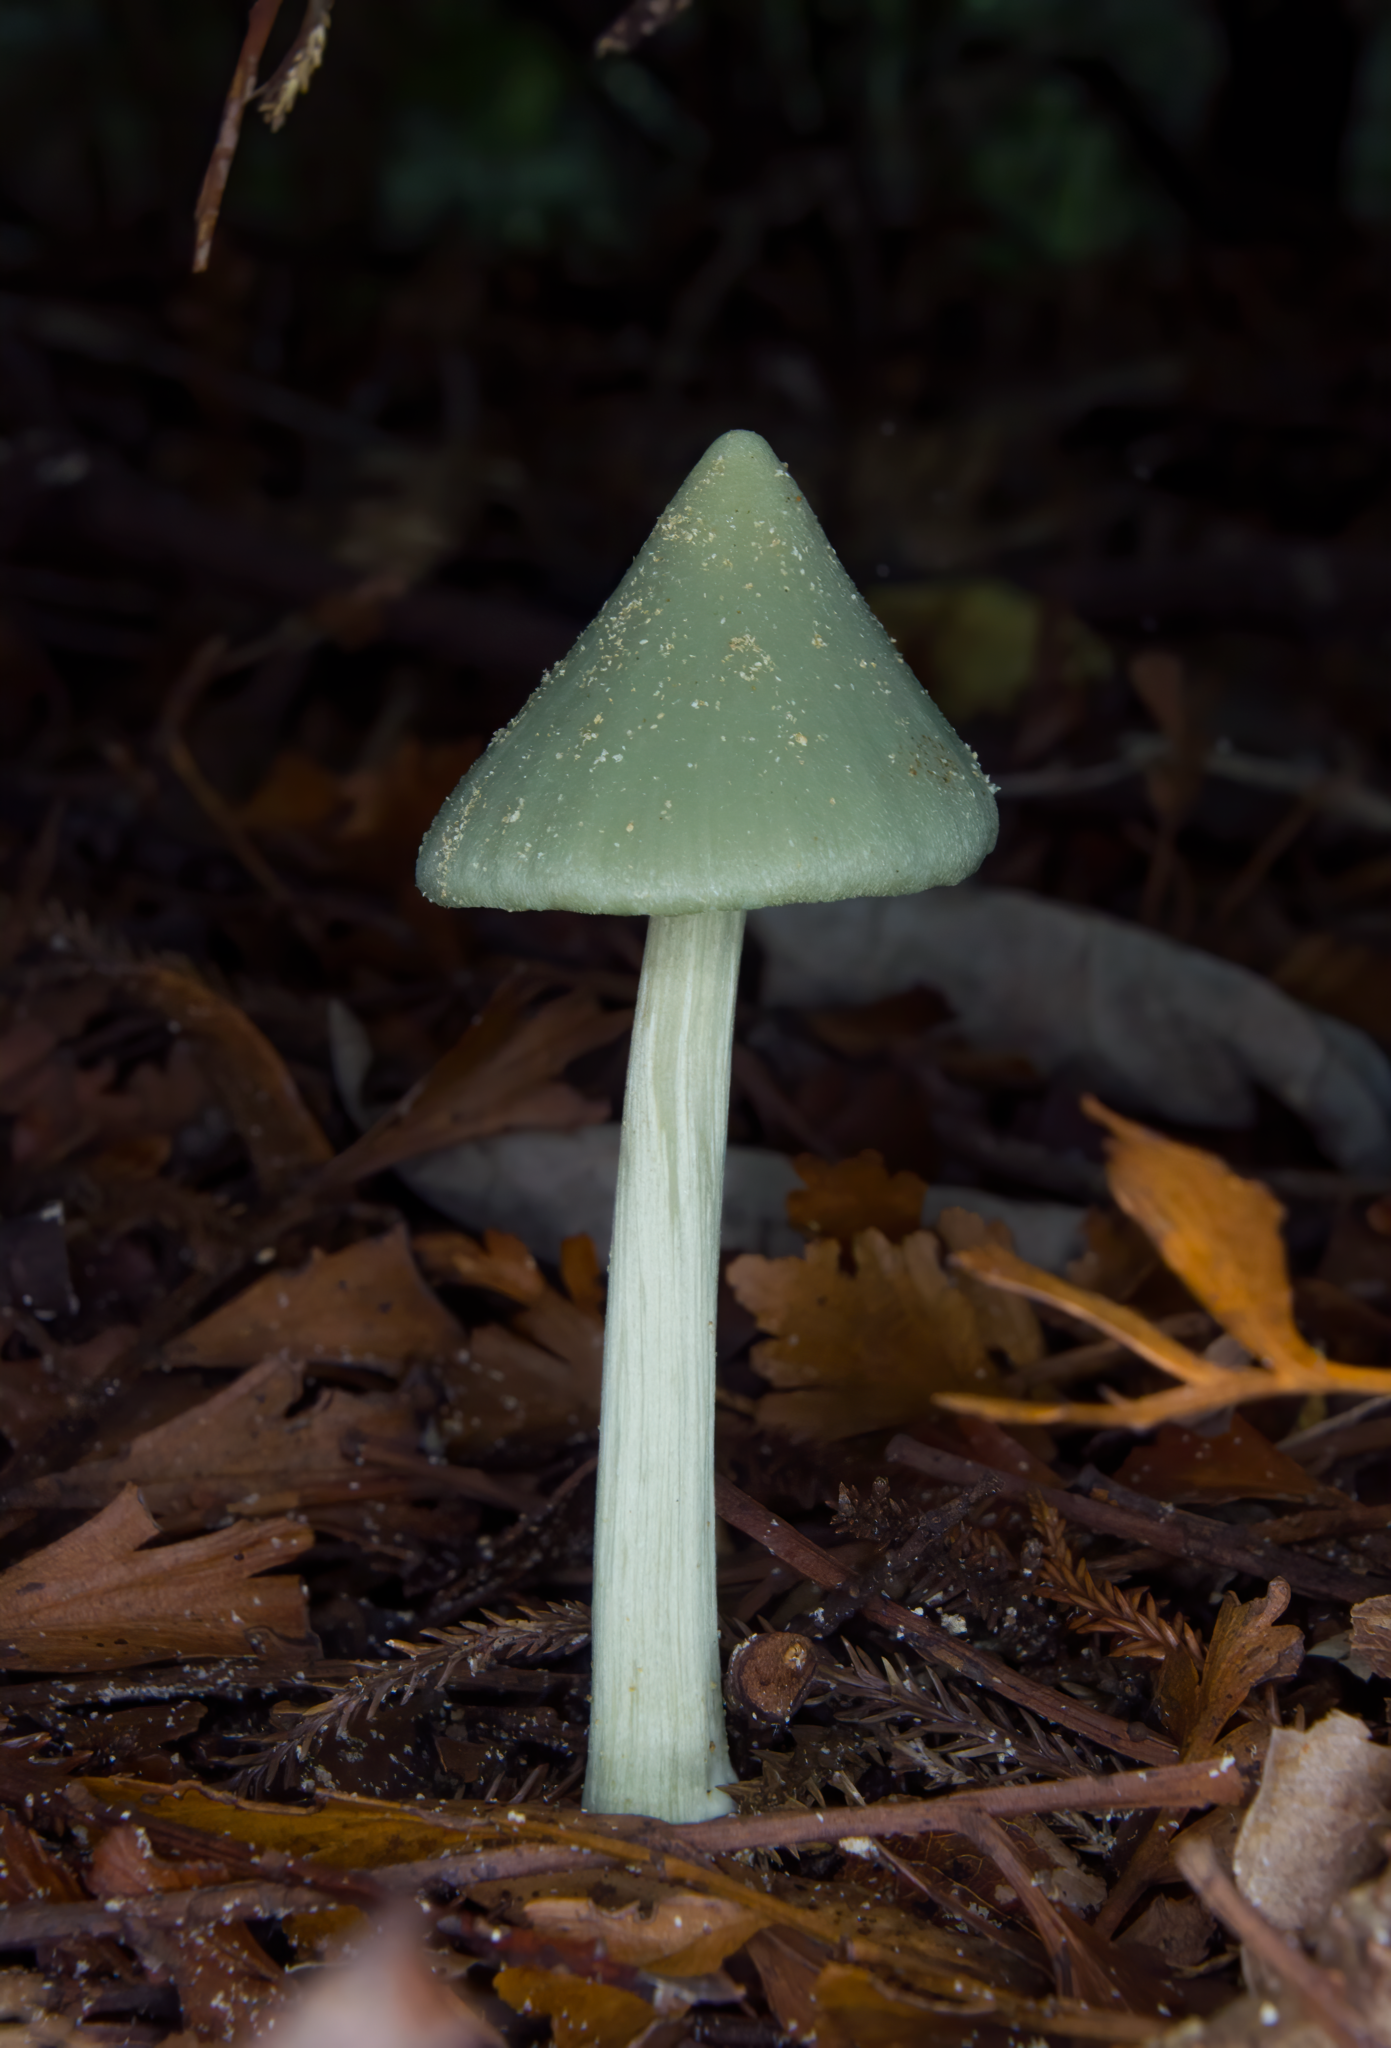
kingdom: Fungi
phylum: Basidiomycota
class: Agaricomycetes
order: Agaricales
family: Entolomataceae
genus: Entoloma
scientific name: Entoloma hochstetteri
